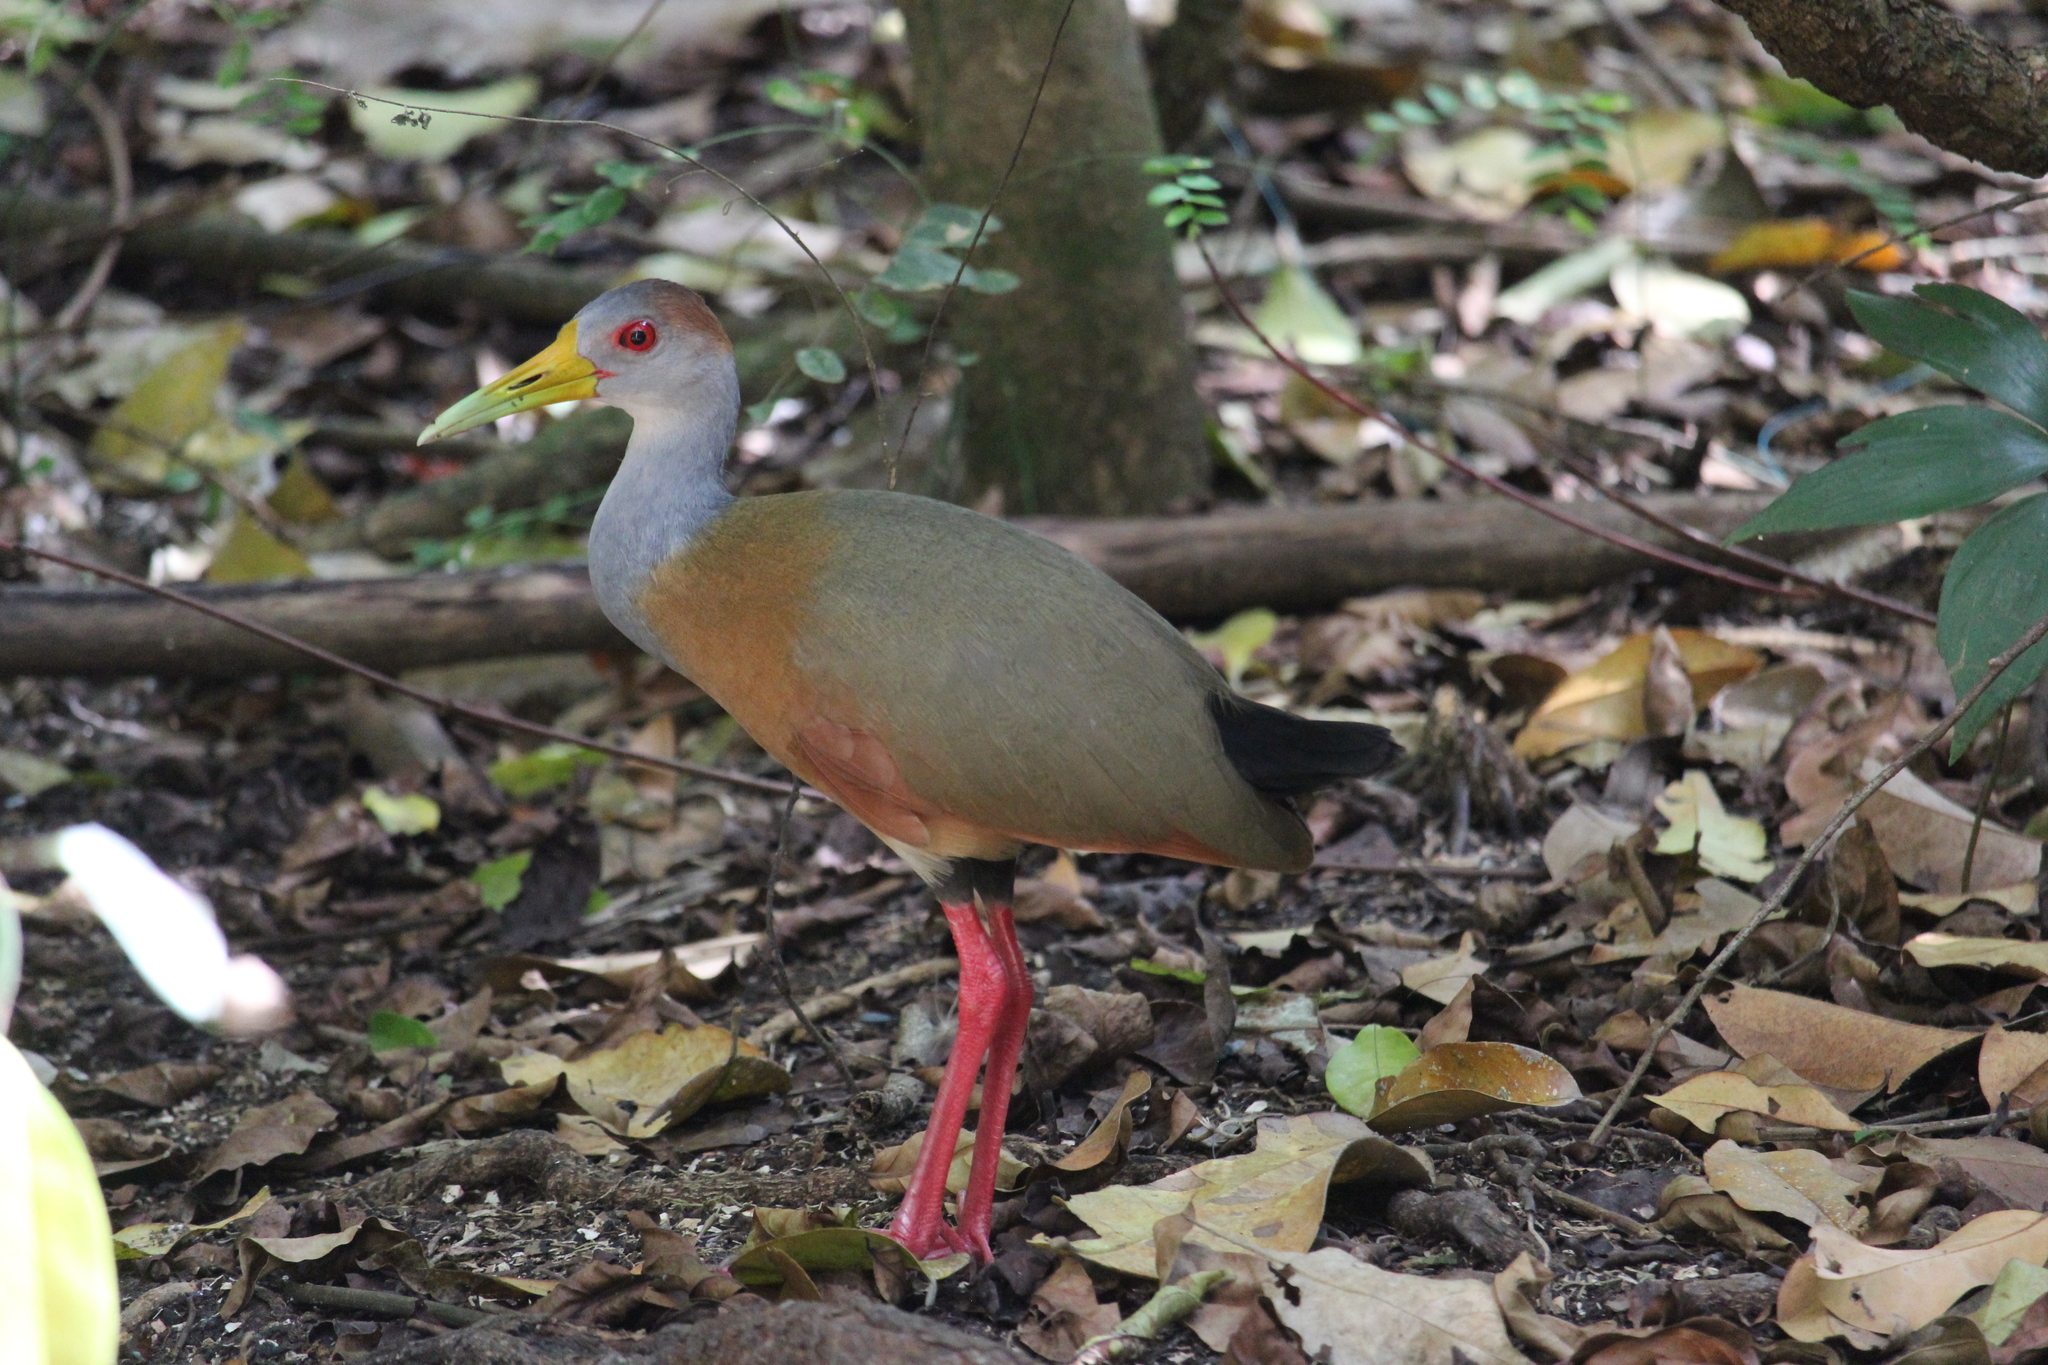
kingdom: Animalia
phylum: Chordata
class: Aves
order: Gruiformes
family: Rallidae
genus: Aramides
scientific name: Aramides albiventris
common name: Russet-naped wood-rail
